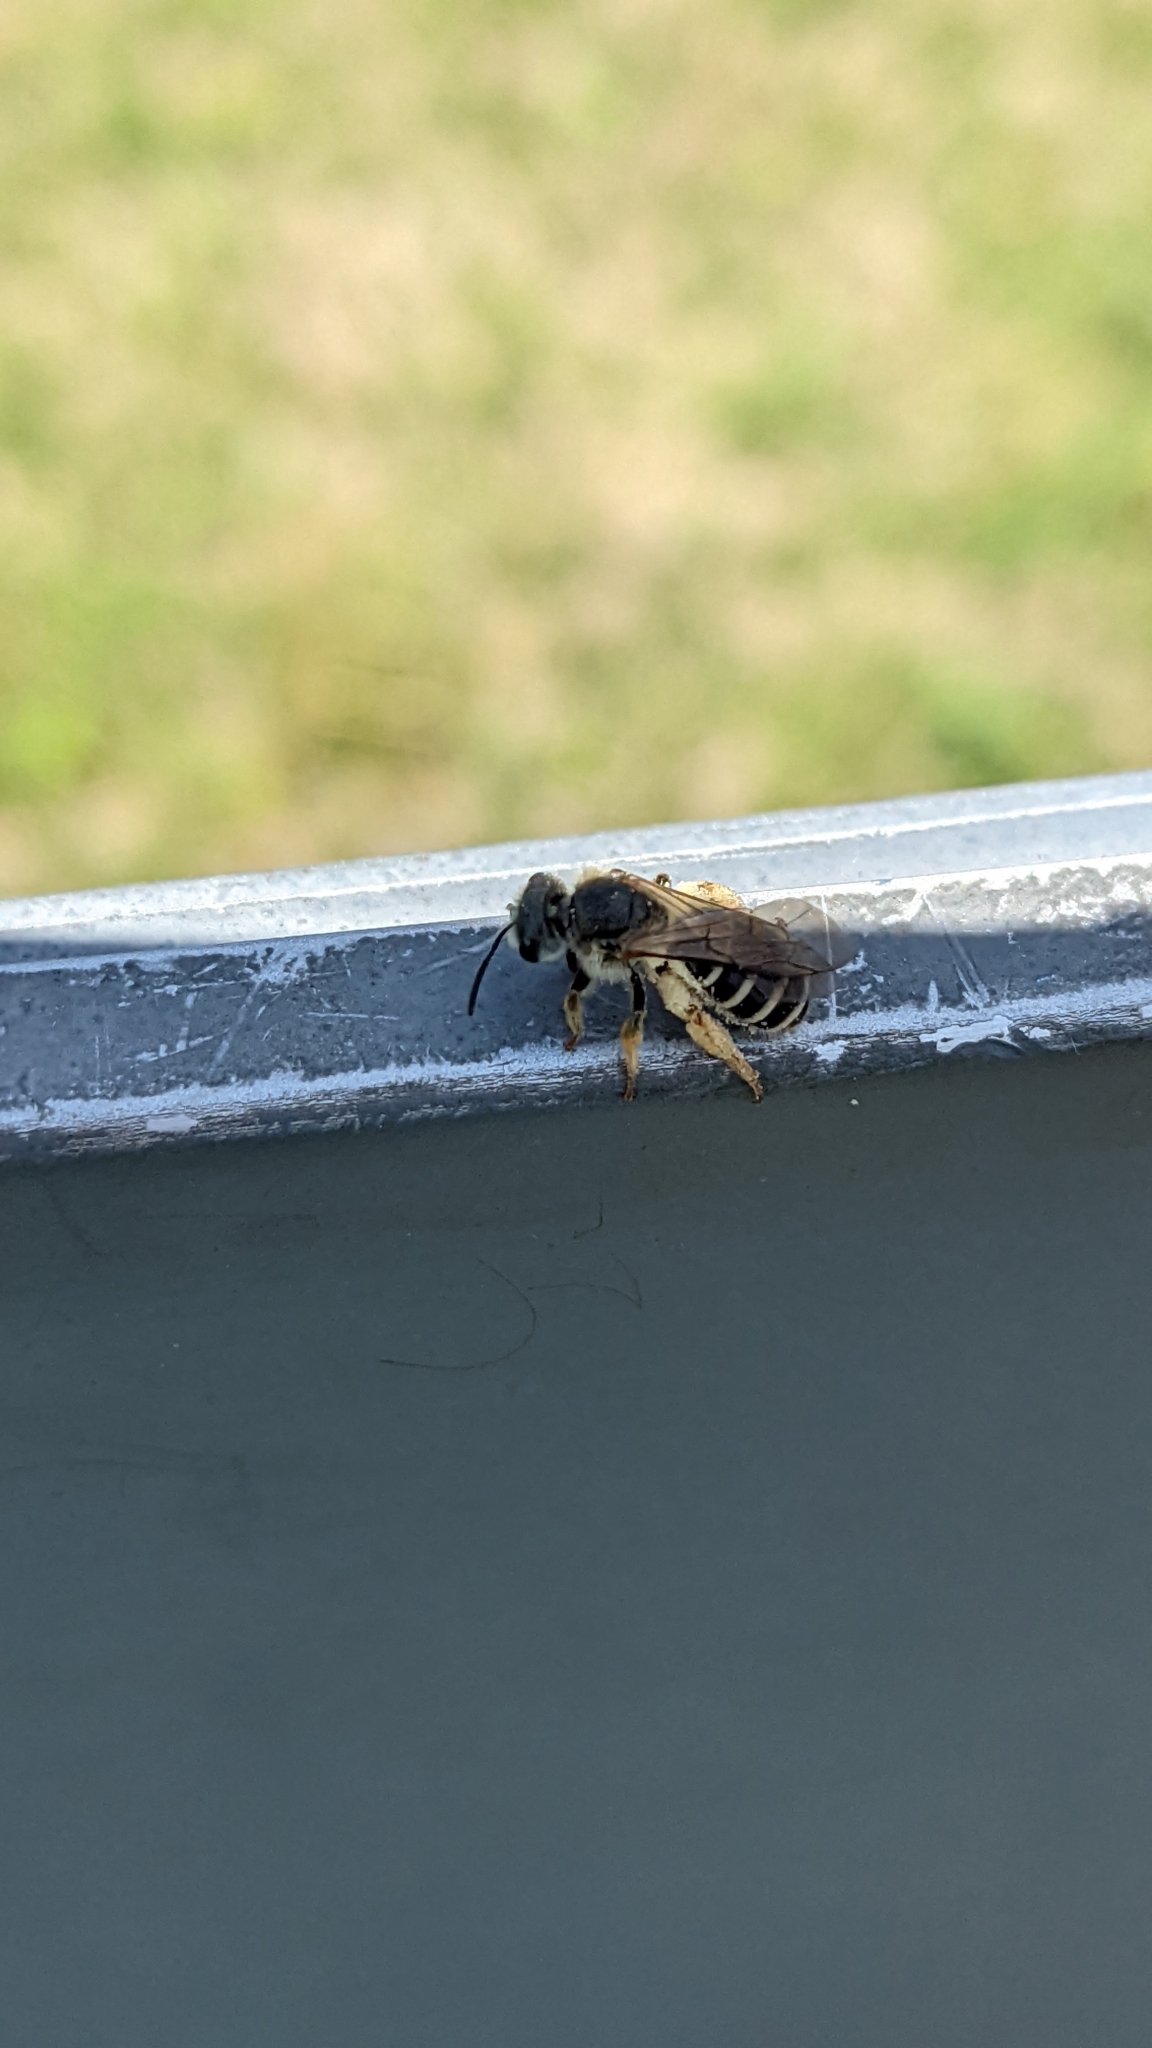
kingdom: Animalia
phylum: Arthropoda
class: Insecta
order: Hymenoptera
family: Halictidae
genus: Halictus
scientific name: Halictus rubicundus
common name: Orange-legged furrow bee
